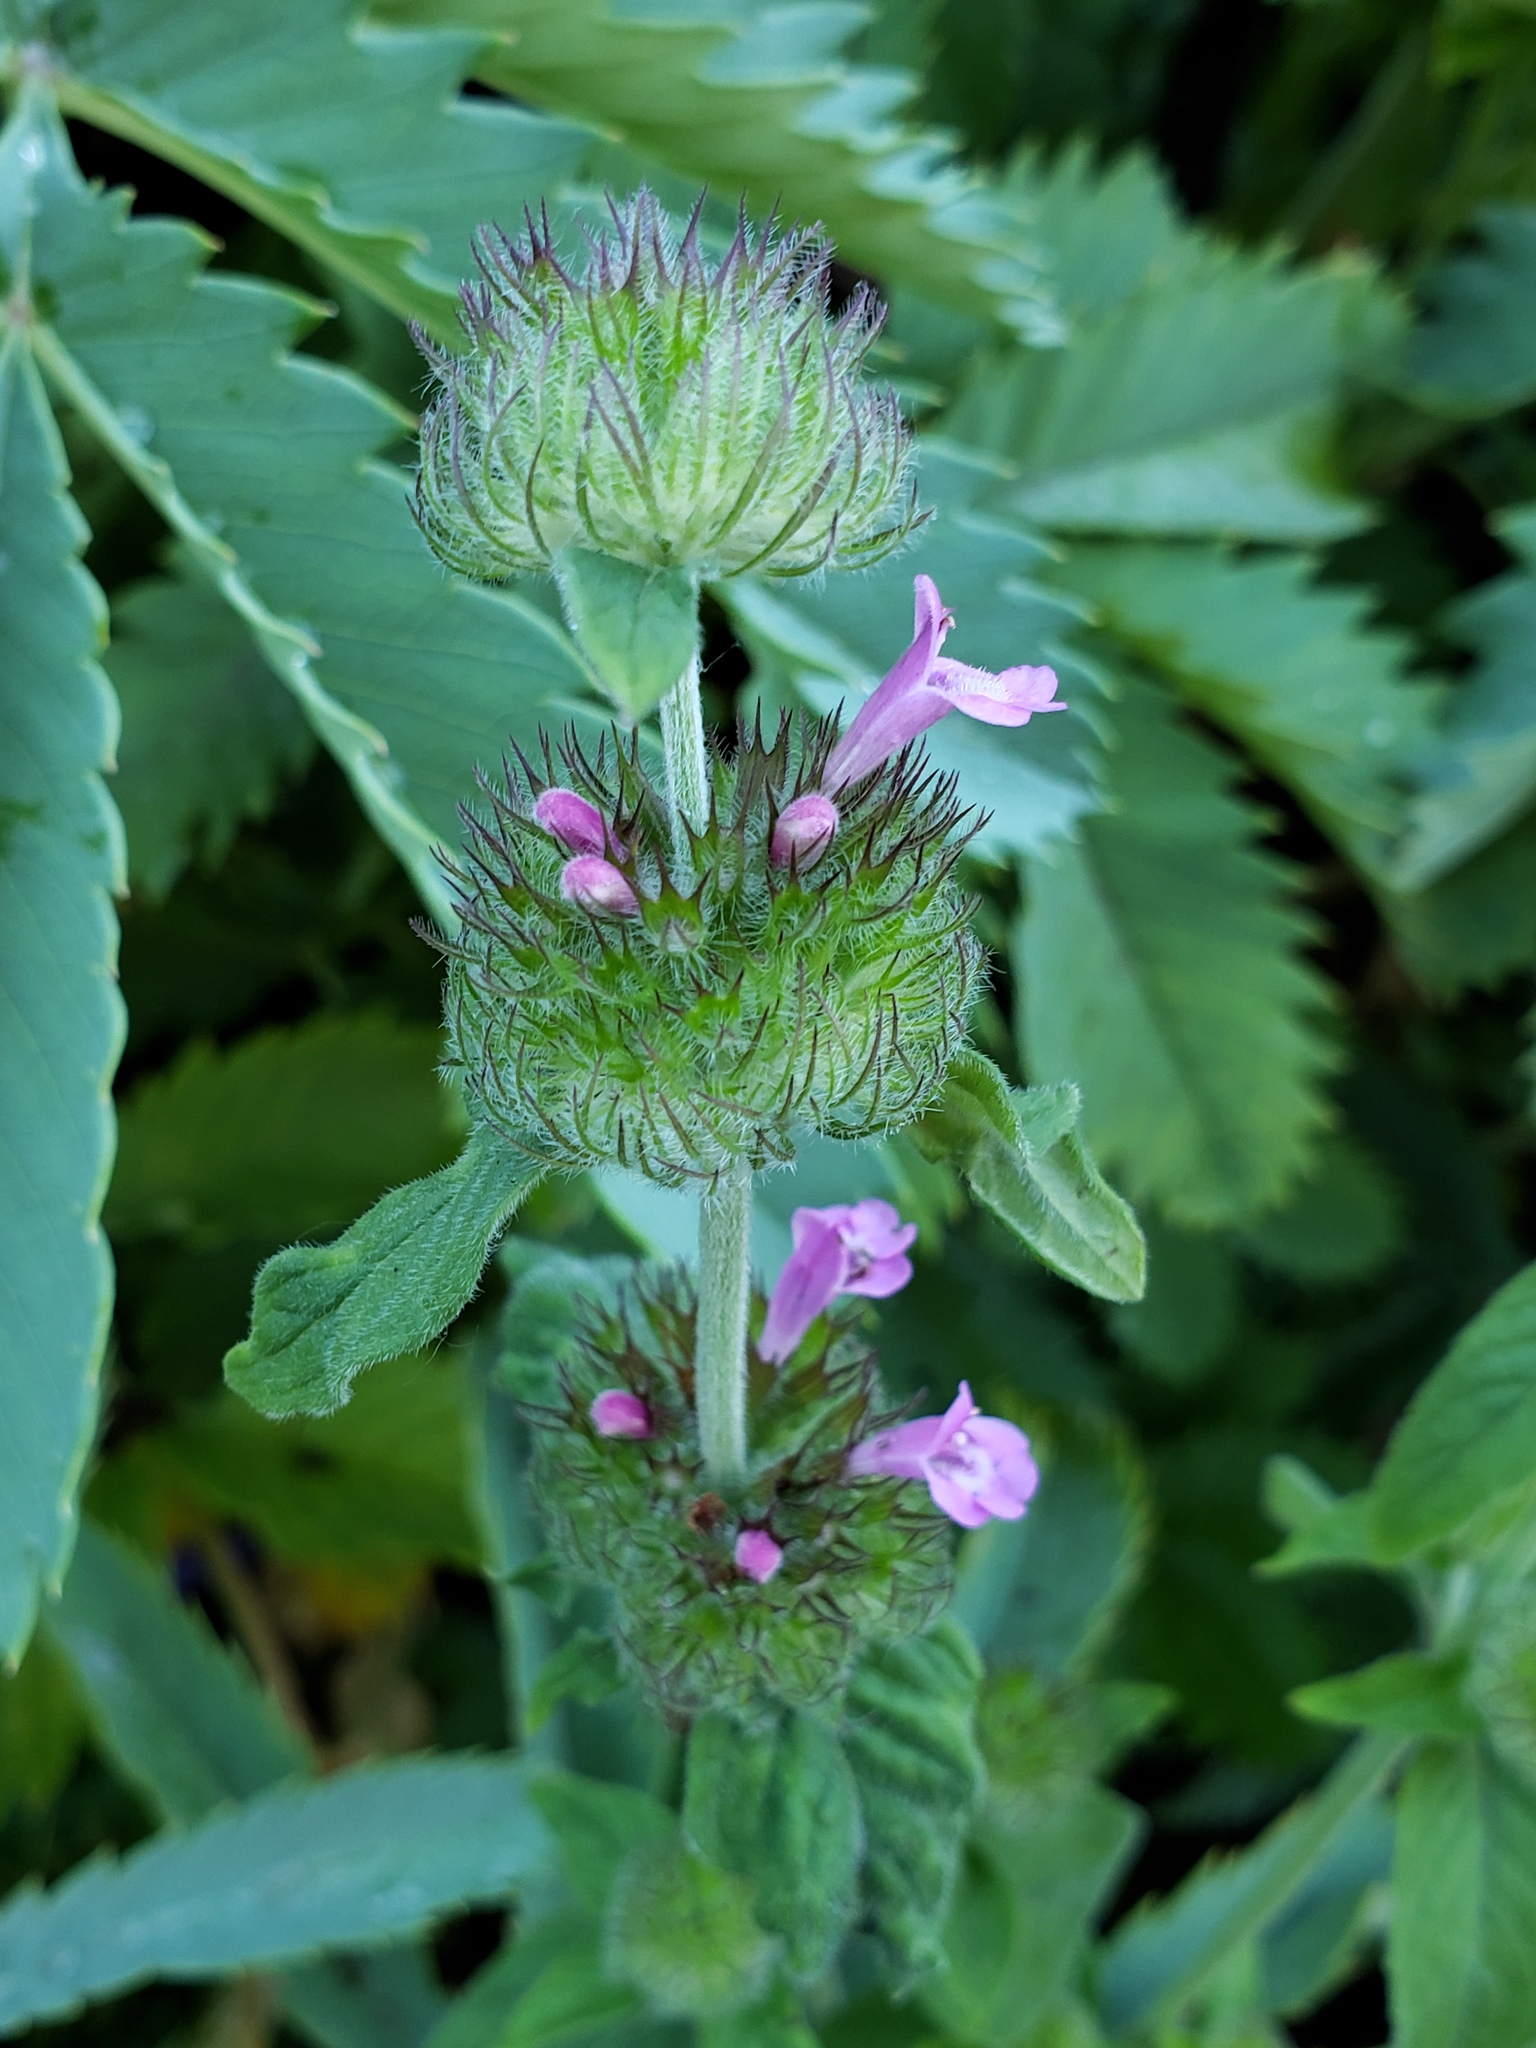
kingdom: Plantae
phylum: Tracheophyta
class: Magnoliopsida
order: Lamiales
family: Lamiaceae
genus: Clinopodium
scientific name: Clinopodium vulgare
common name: Wild basil
